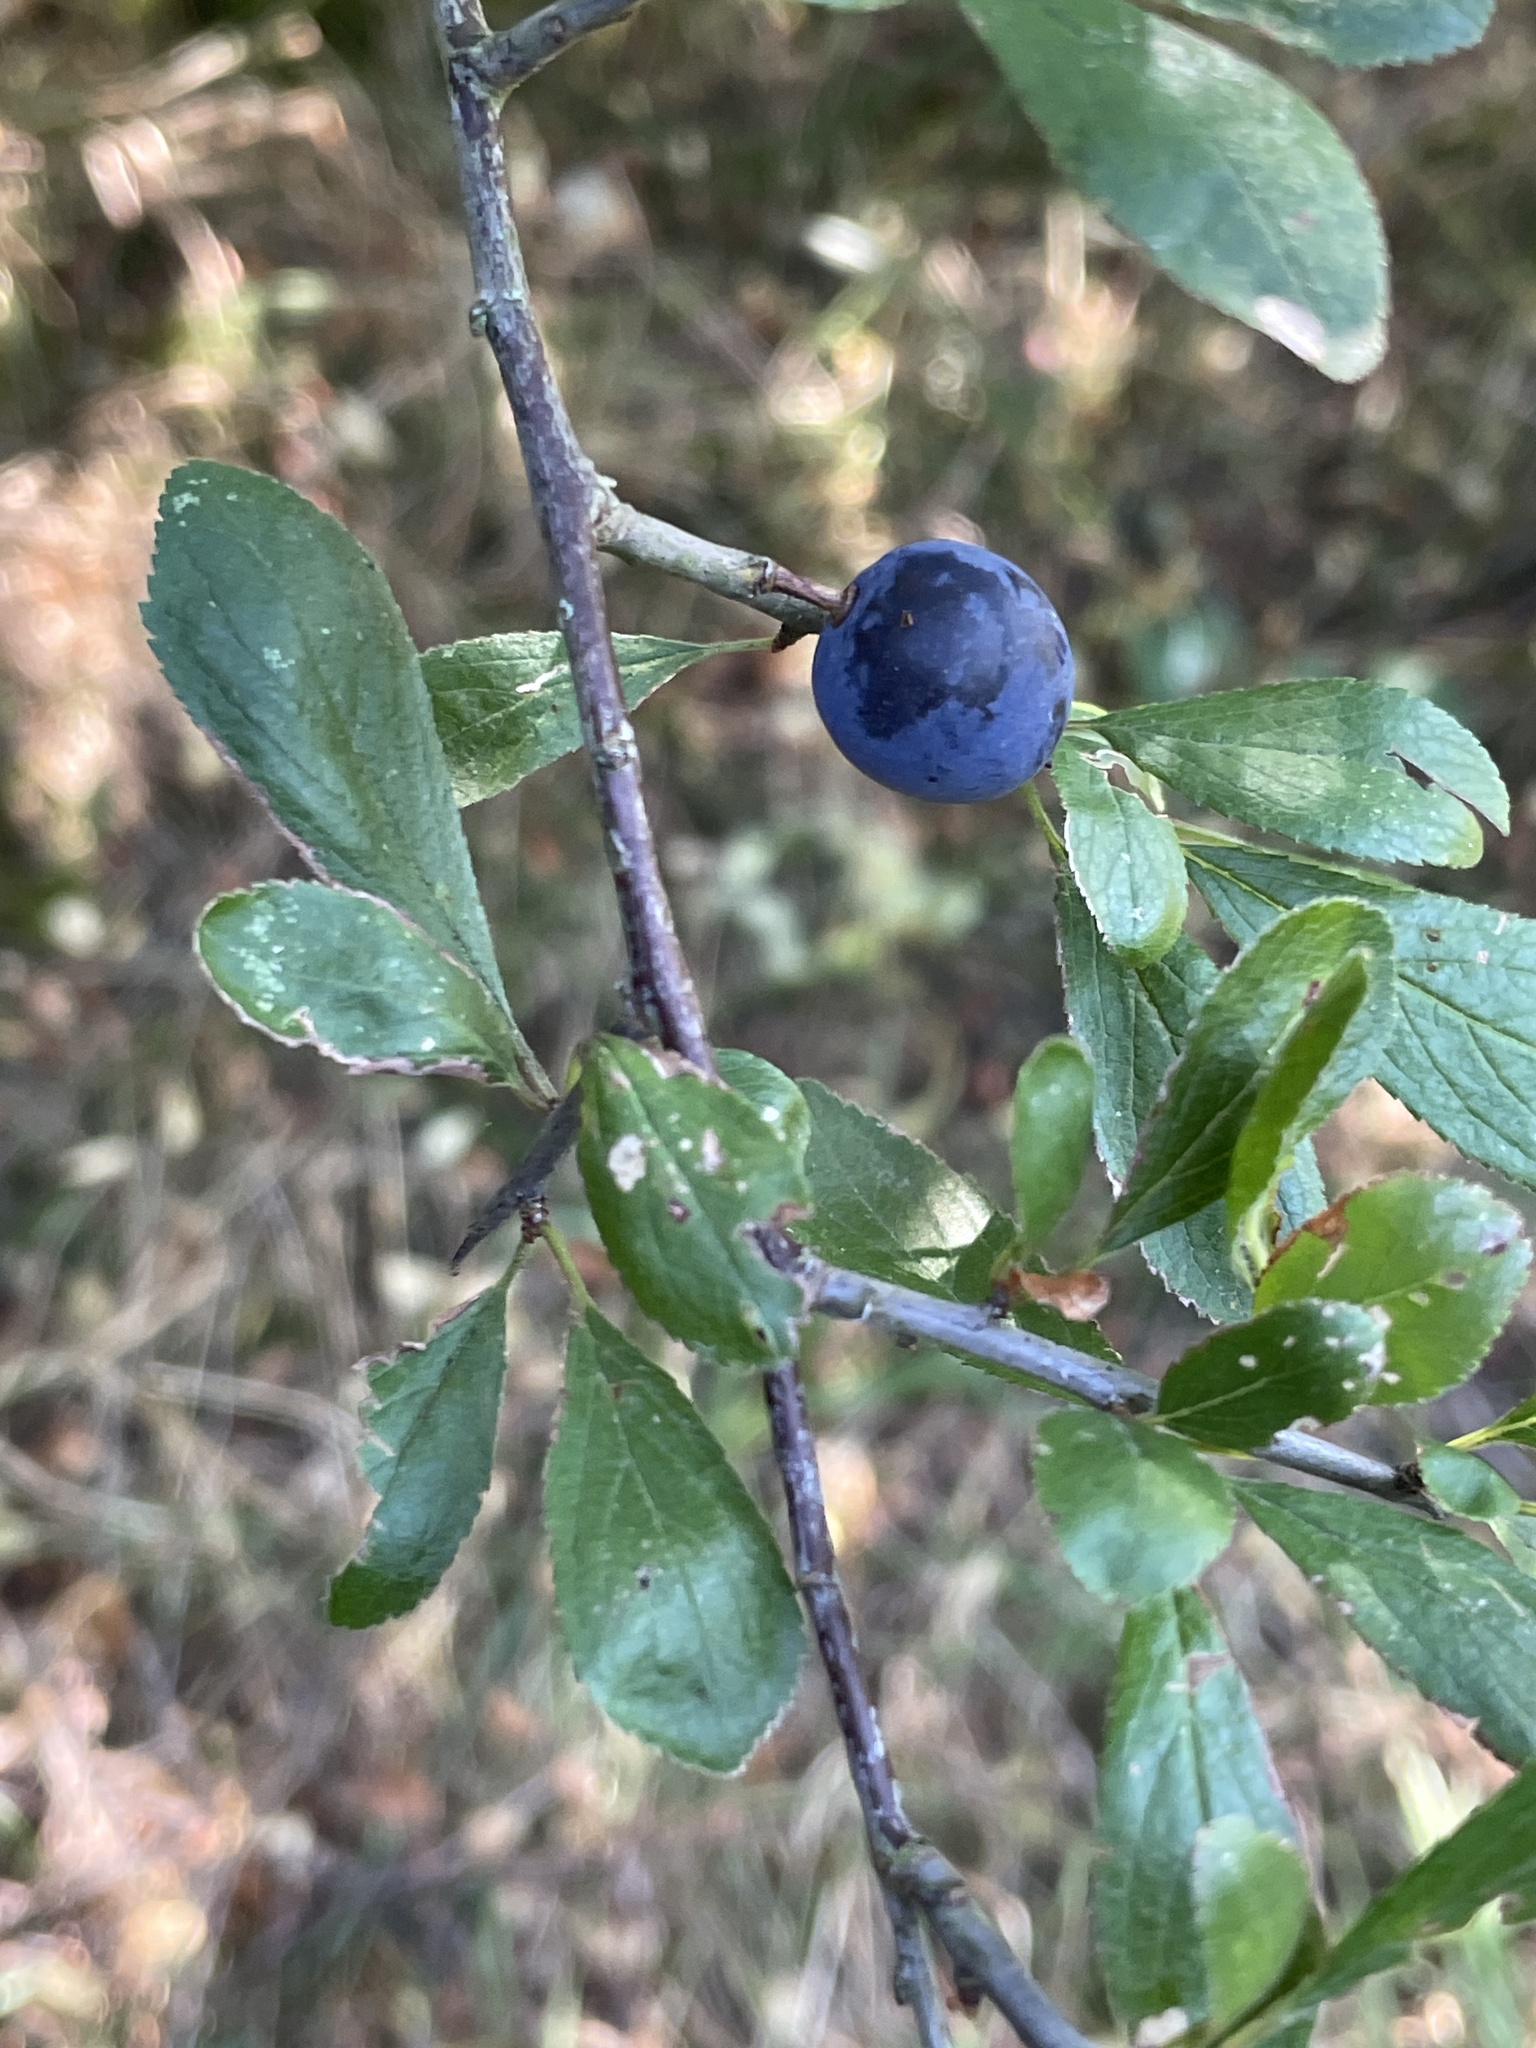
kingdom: Plantae
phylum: Tracheophyta
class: Magnoliopsida
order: Rosales
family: Rosaceae
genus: Prunus
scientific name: Prunus spinosa
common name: Blackthorn
